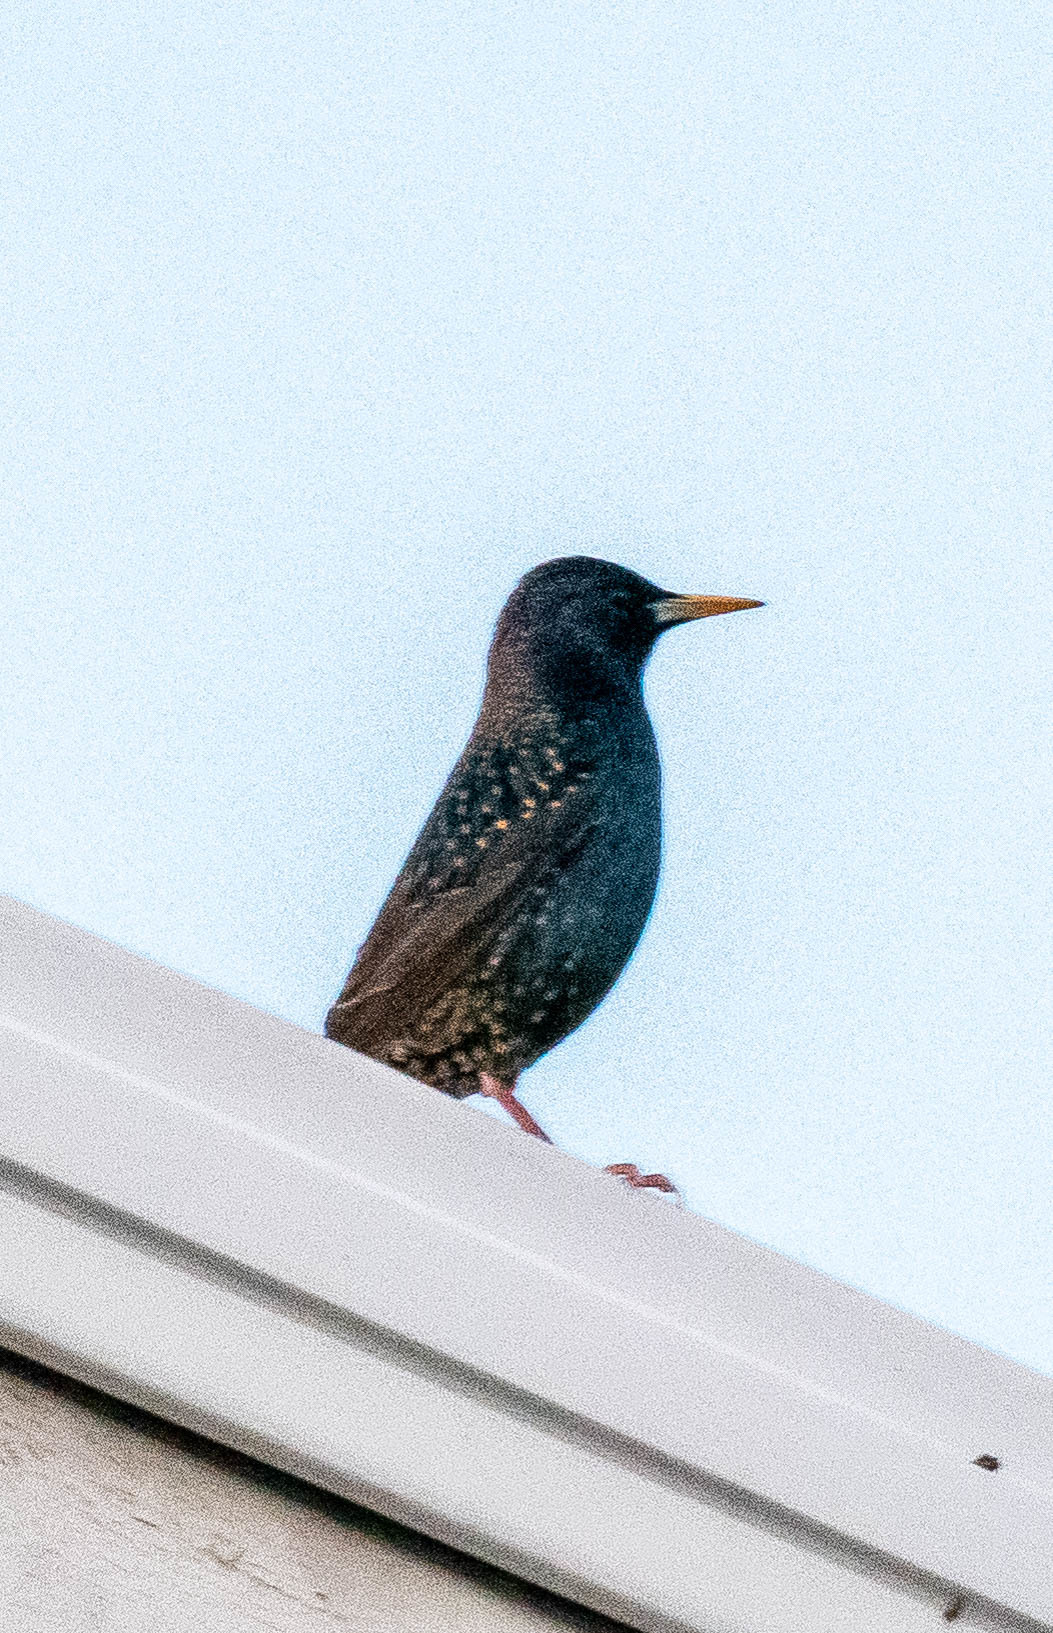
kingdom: Animalia
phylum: Chordata
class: Aves
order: Passeriformes
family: Sturnidae
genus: Sturnus
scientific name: Sturnus vulgaris
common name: Common starling
